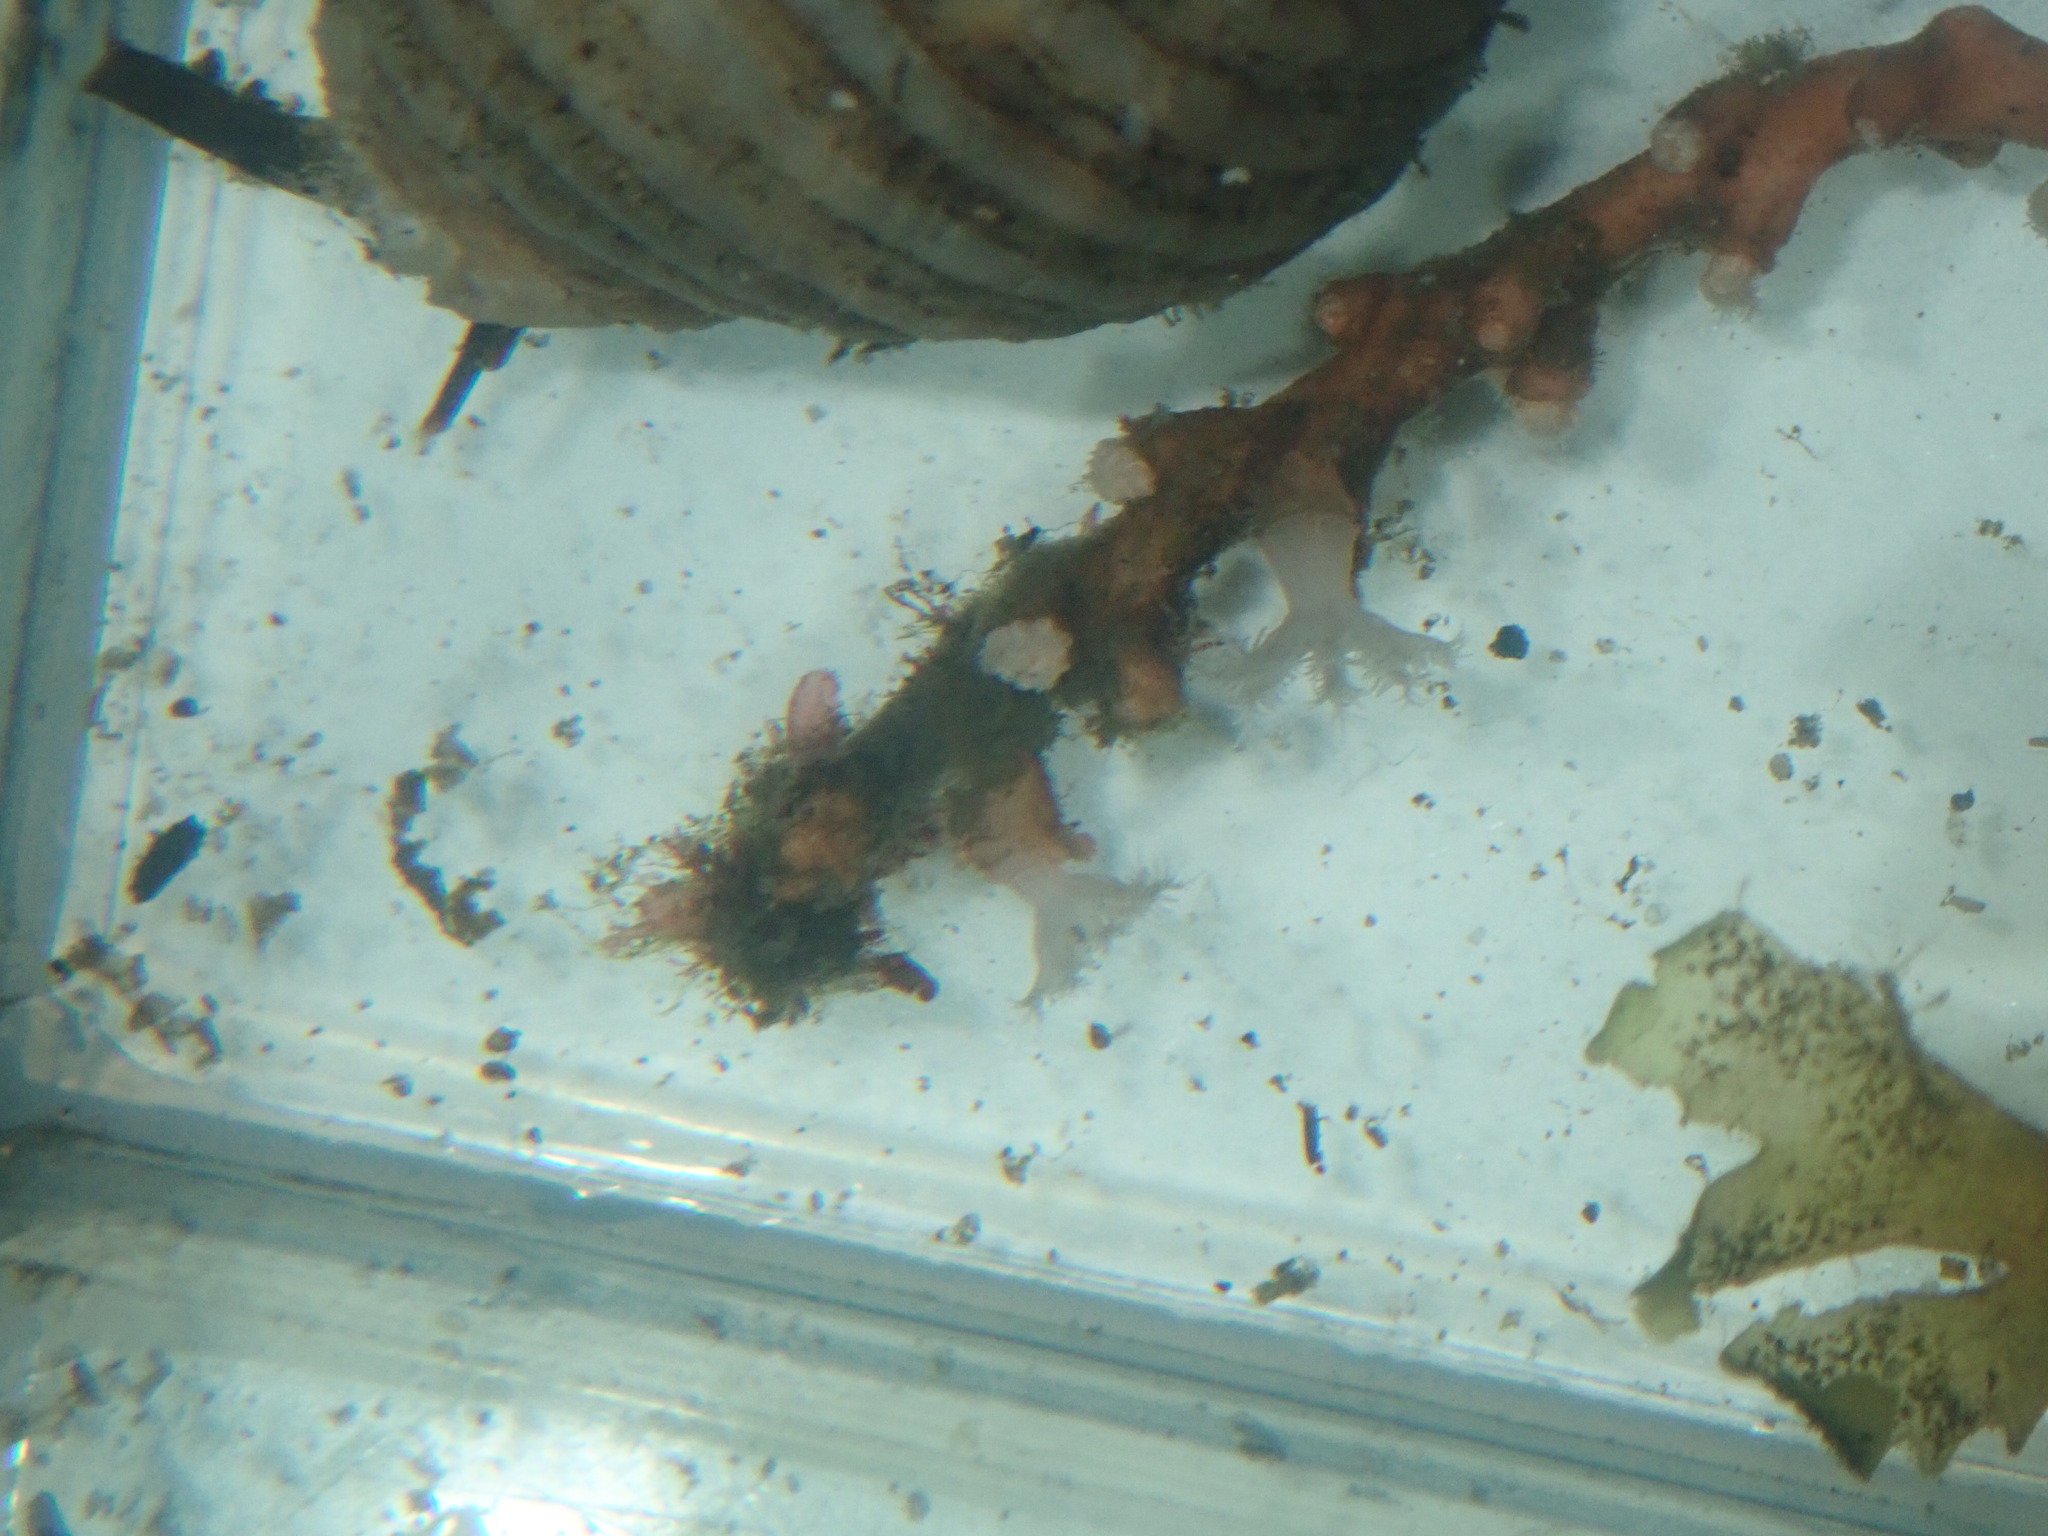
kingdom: Animalia
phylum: Cnidaria
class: Anthozoa
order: Malacalcyonacea
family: Carijoidae
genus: Carijoa
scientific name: Carijoa
